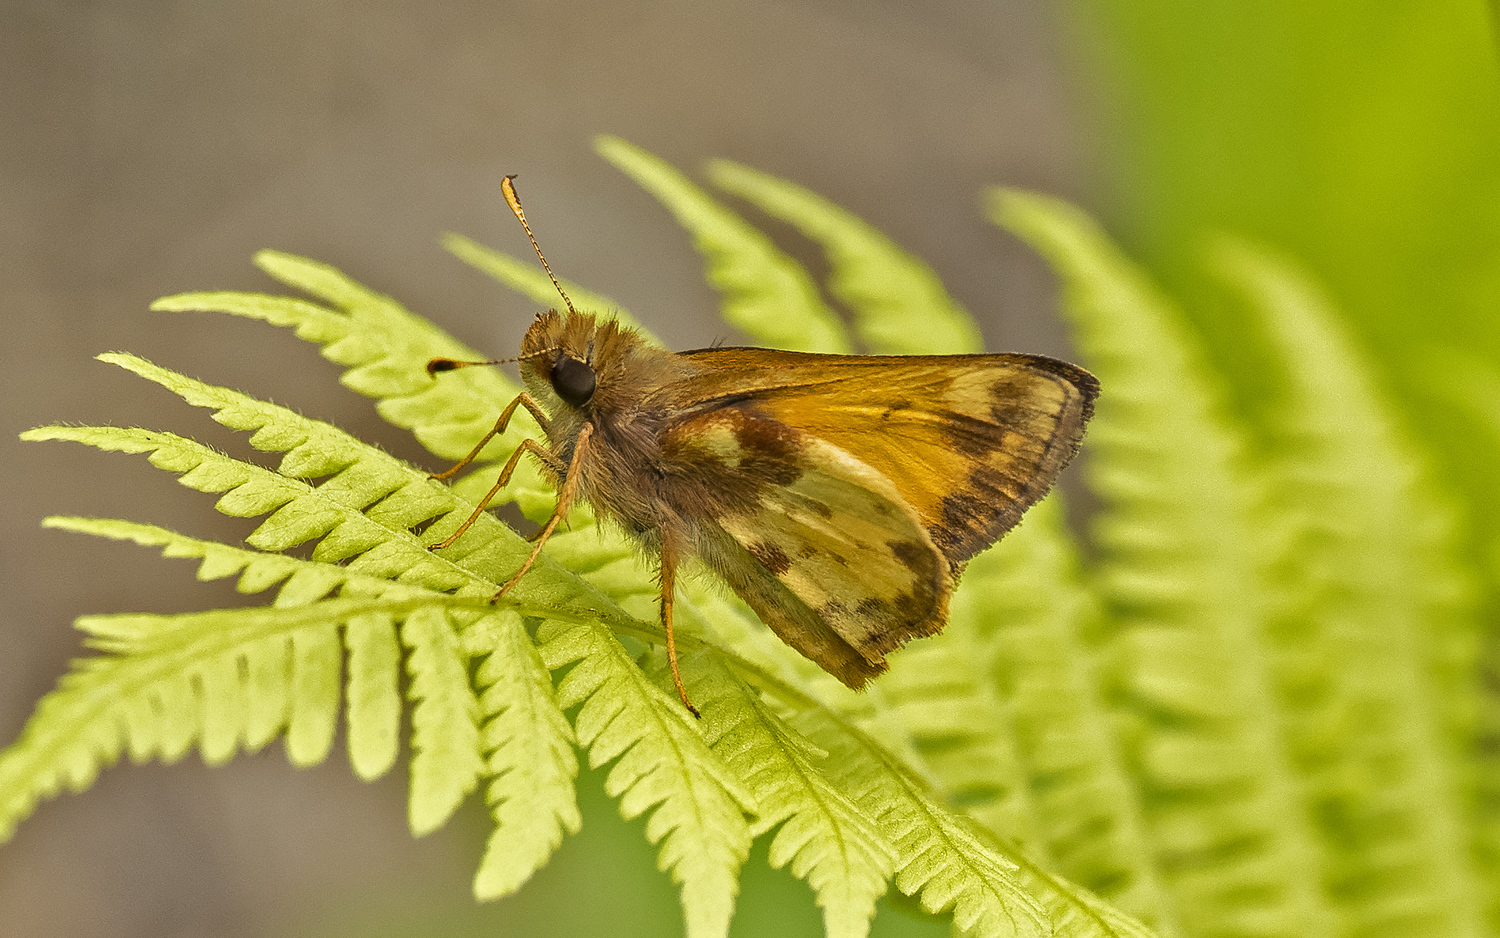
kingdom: Animalia
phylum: Arthropoda
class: Insecta
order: Lepidoptera
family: Hesperiidae
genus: Lon
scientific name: Lon zabulon
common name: Zabulon skipper
